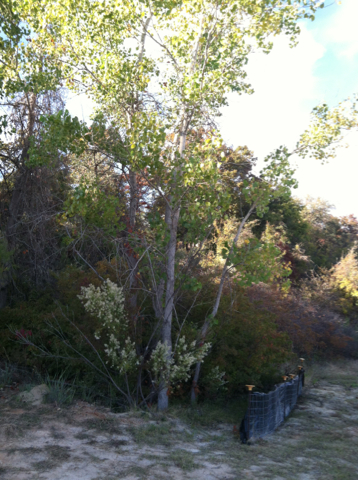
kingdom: Plantae
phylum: Tracheophyta
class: Magnoliopsida
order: Malpighiales
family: Salicaceae
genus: Populus
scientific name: Populus deltoides
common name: Eastern cottonwood
